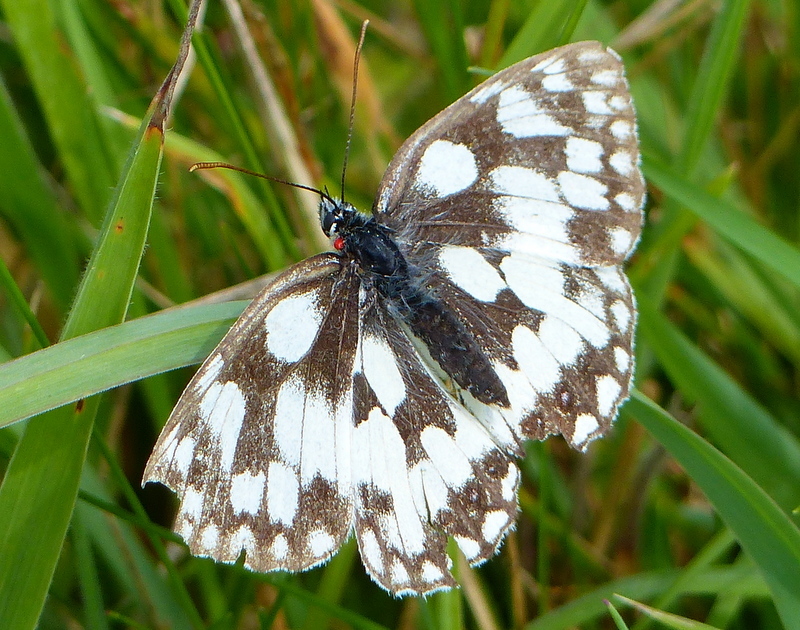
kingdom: Animalia
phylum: Arthropoda
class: Insecta
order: Lepidoptera
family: Nymphalidae
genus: Melanargia
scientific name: Melanargia galathea
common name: Marbled white
